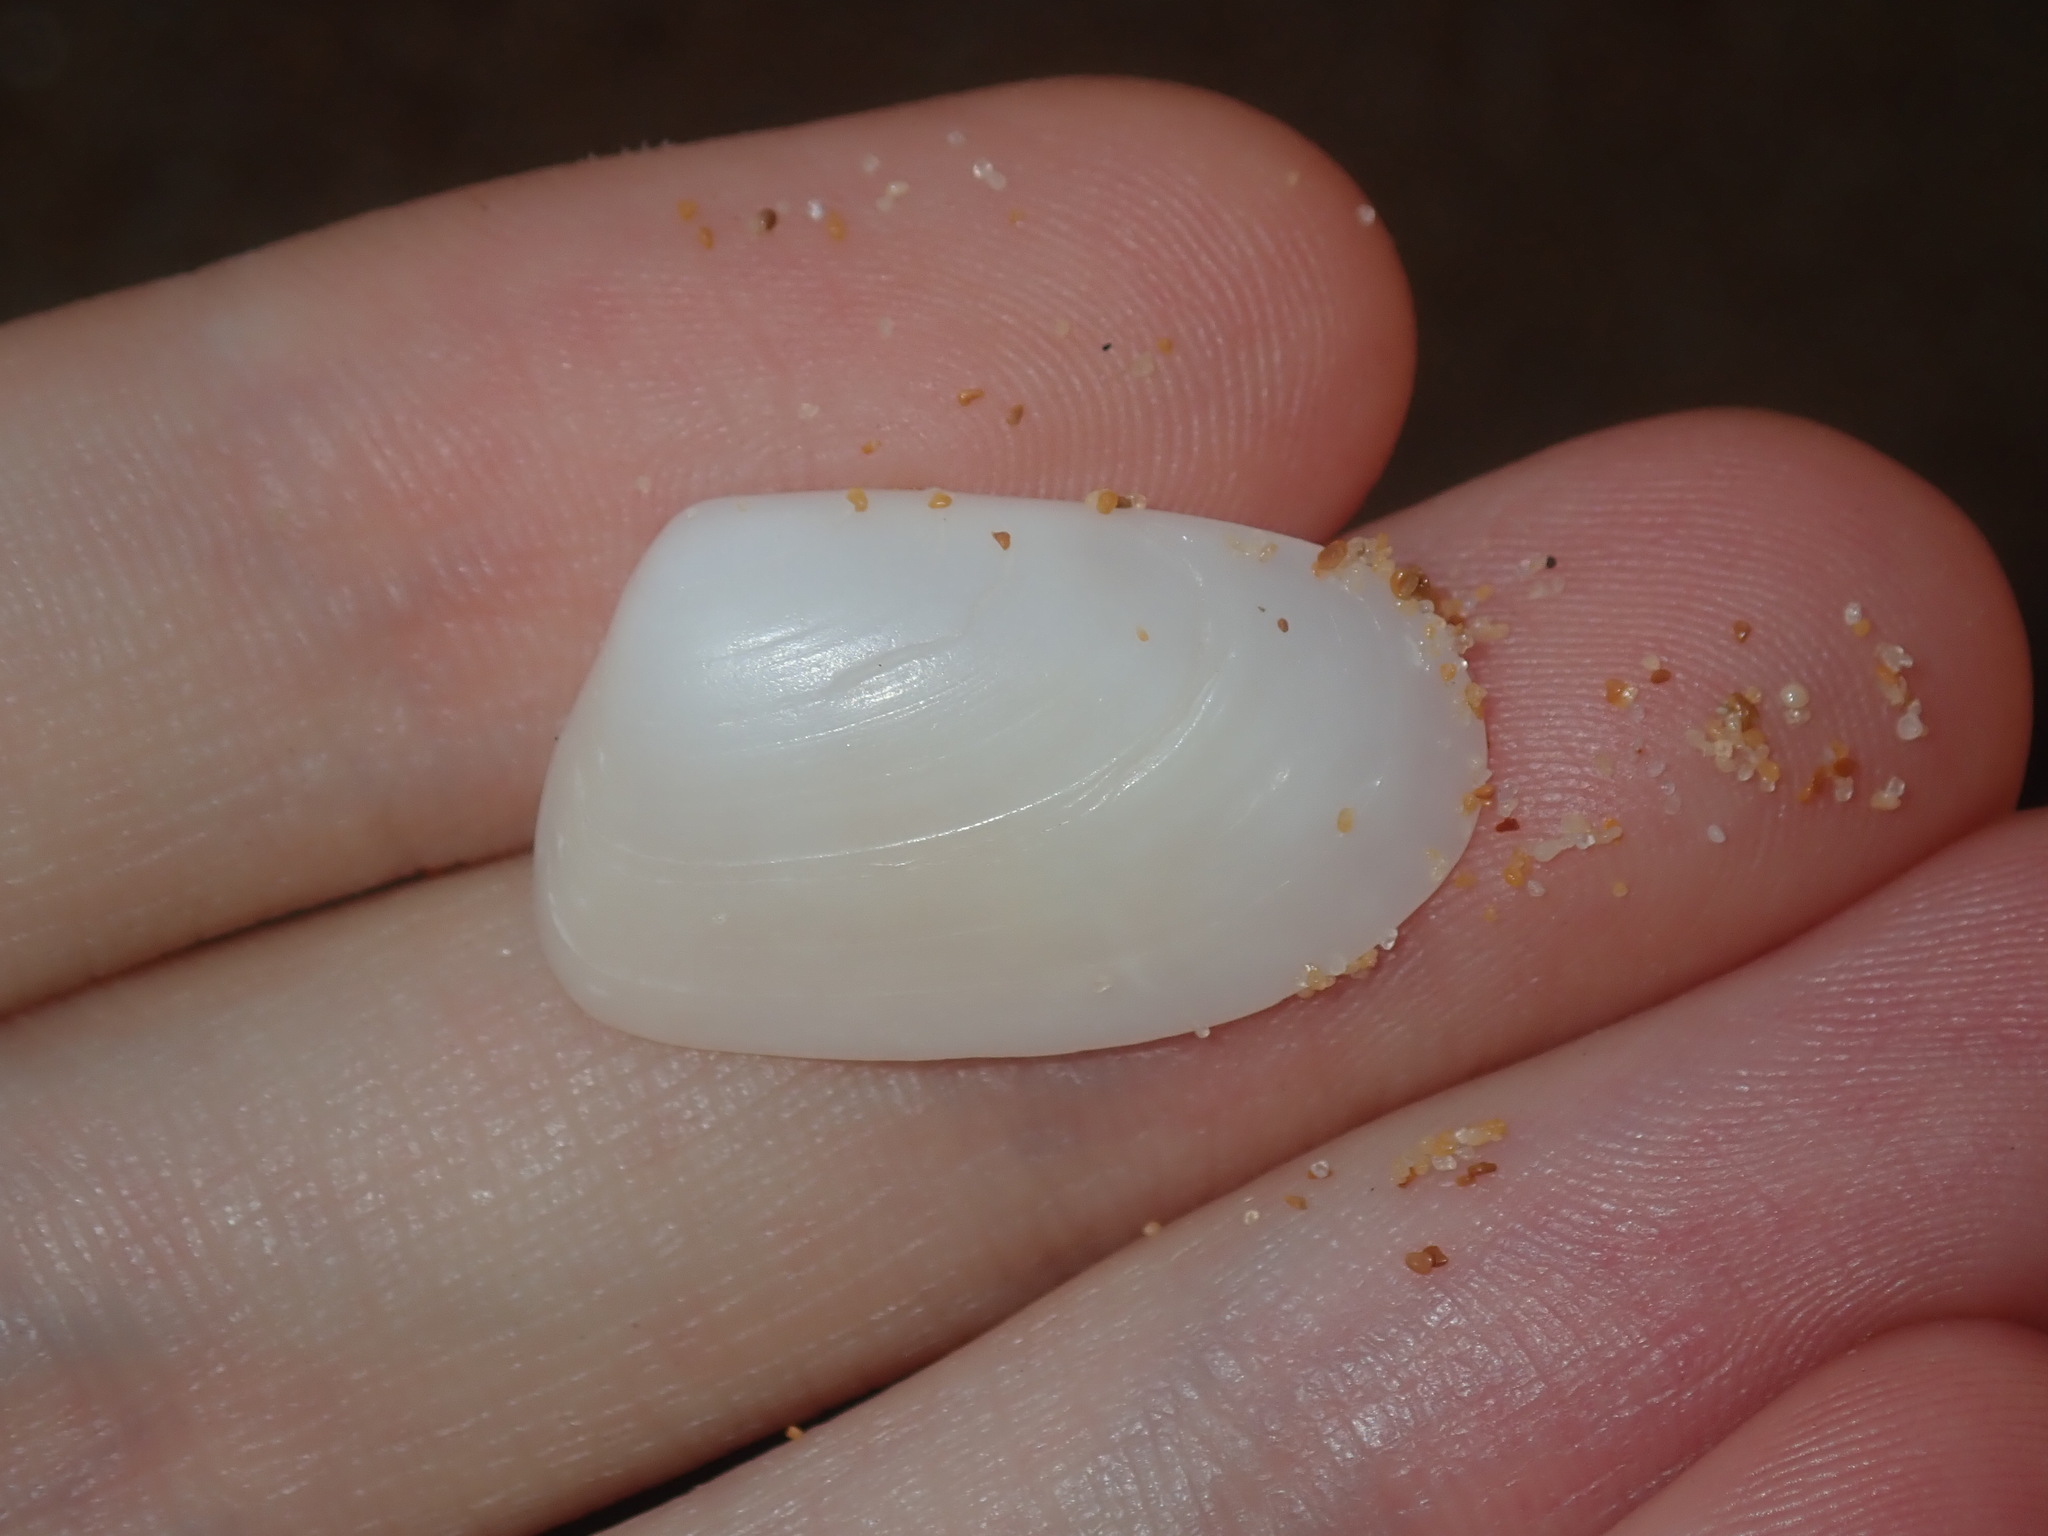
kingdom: Animalia
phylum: Mollusca
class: Bivalvia
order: Venerida
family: Mesodesmatidae
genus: Paphies
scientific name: Paphies angusta
